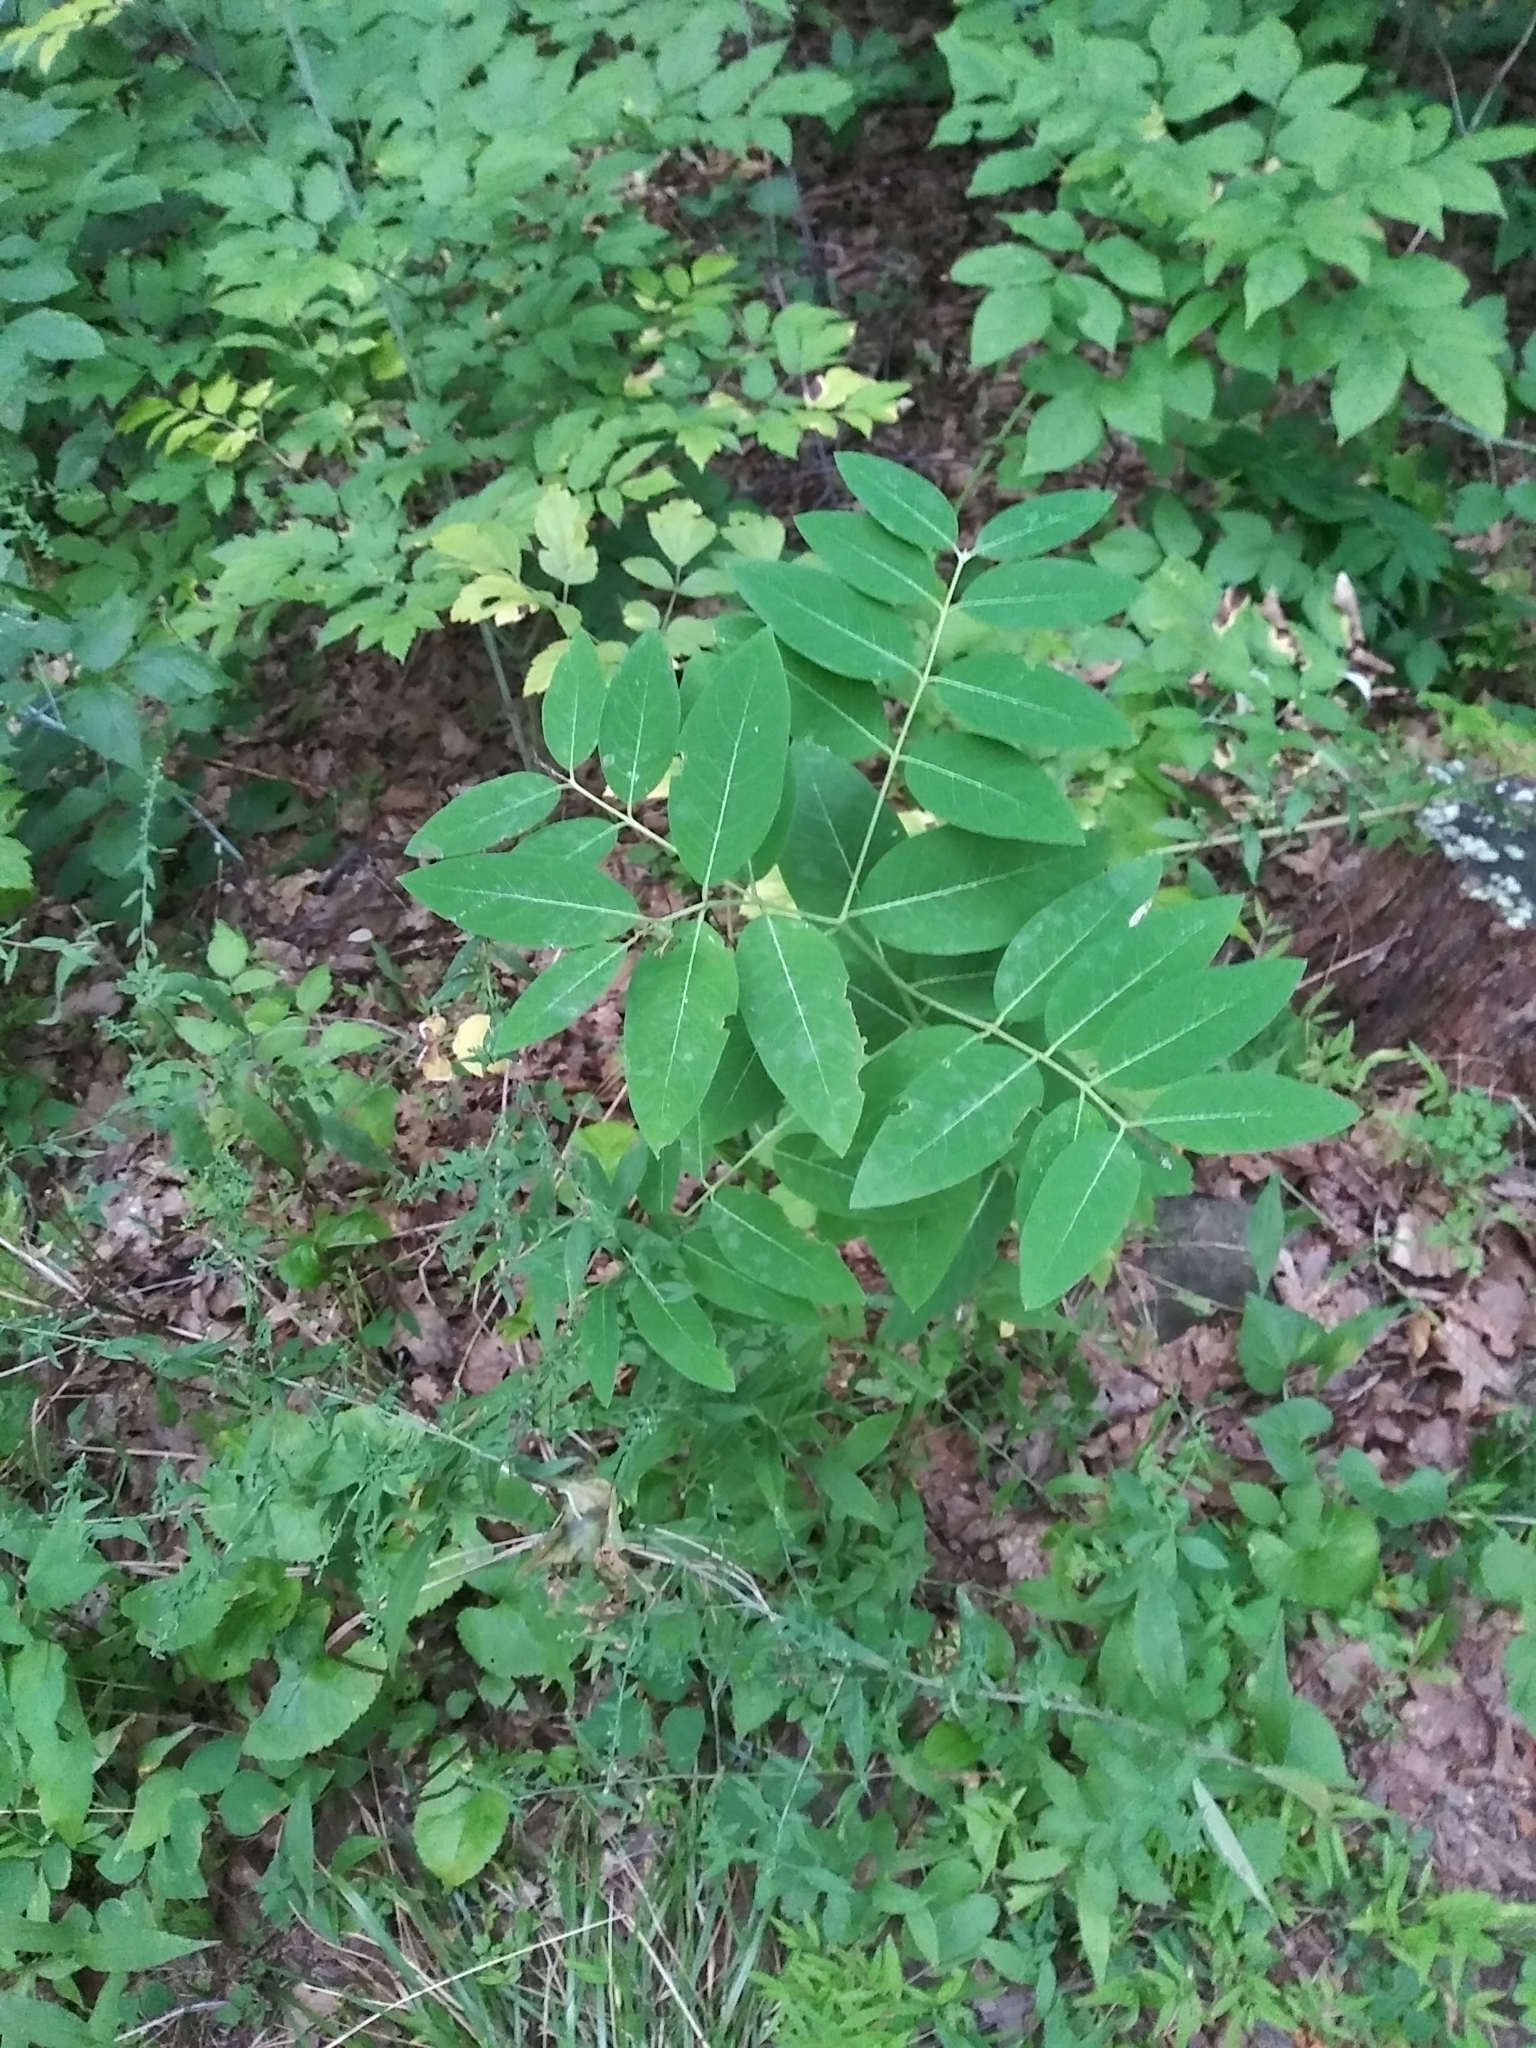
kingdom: Plantae
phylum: Tracheophyta
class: Magnoliopsida
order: Gentianales
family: Apocynaceae
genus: Apocynum
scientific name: Apocynum cannabinum
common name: Hemp dogbane
